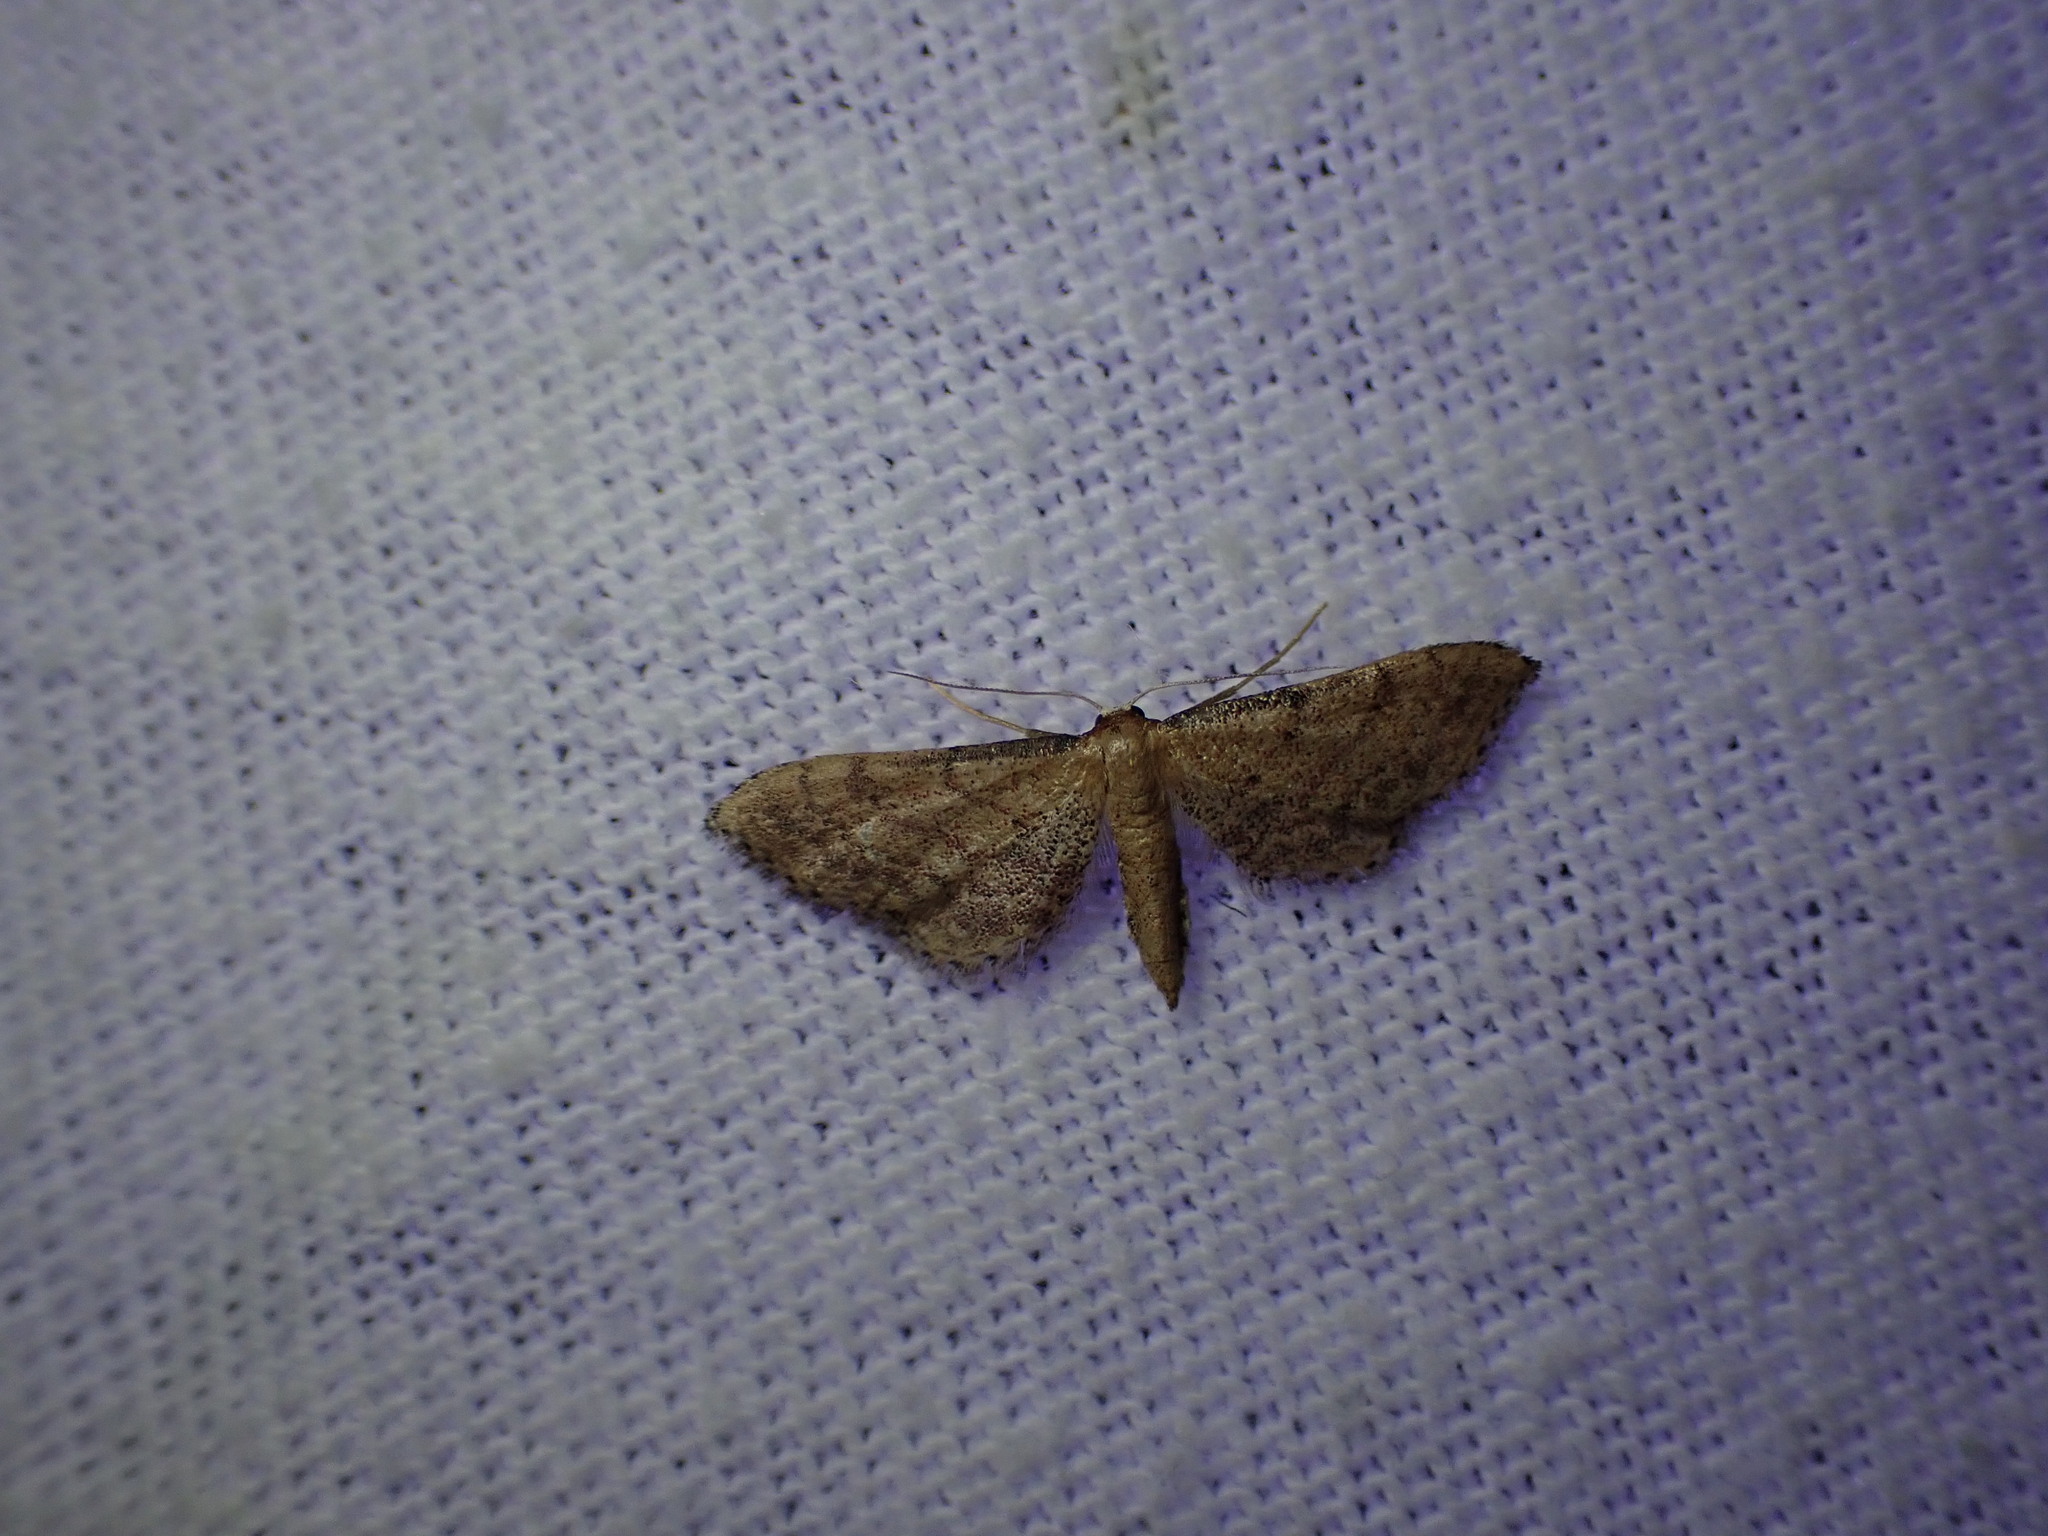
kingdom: Animalia
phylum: Arthropoda
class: Insecta
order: Lepidoptera
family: Geometridae
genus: Idaea
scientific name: Idaea infirmaria
